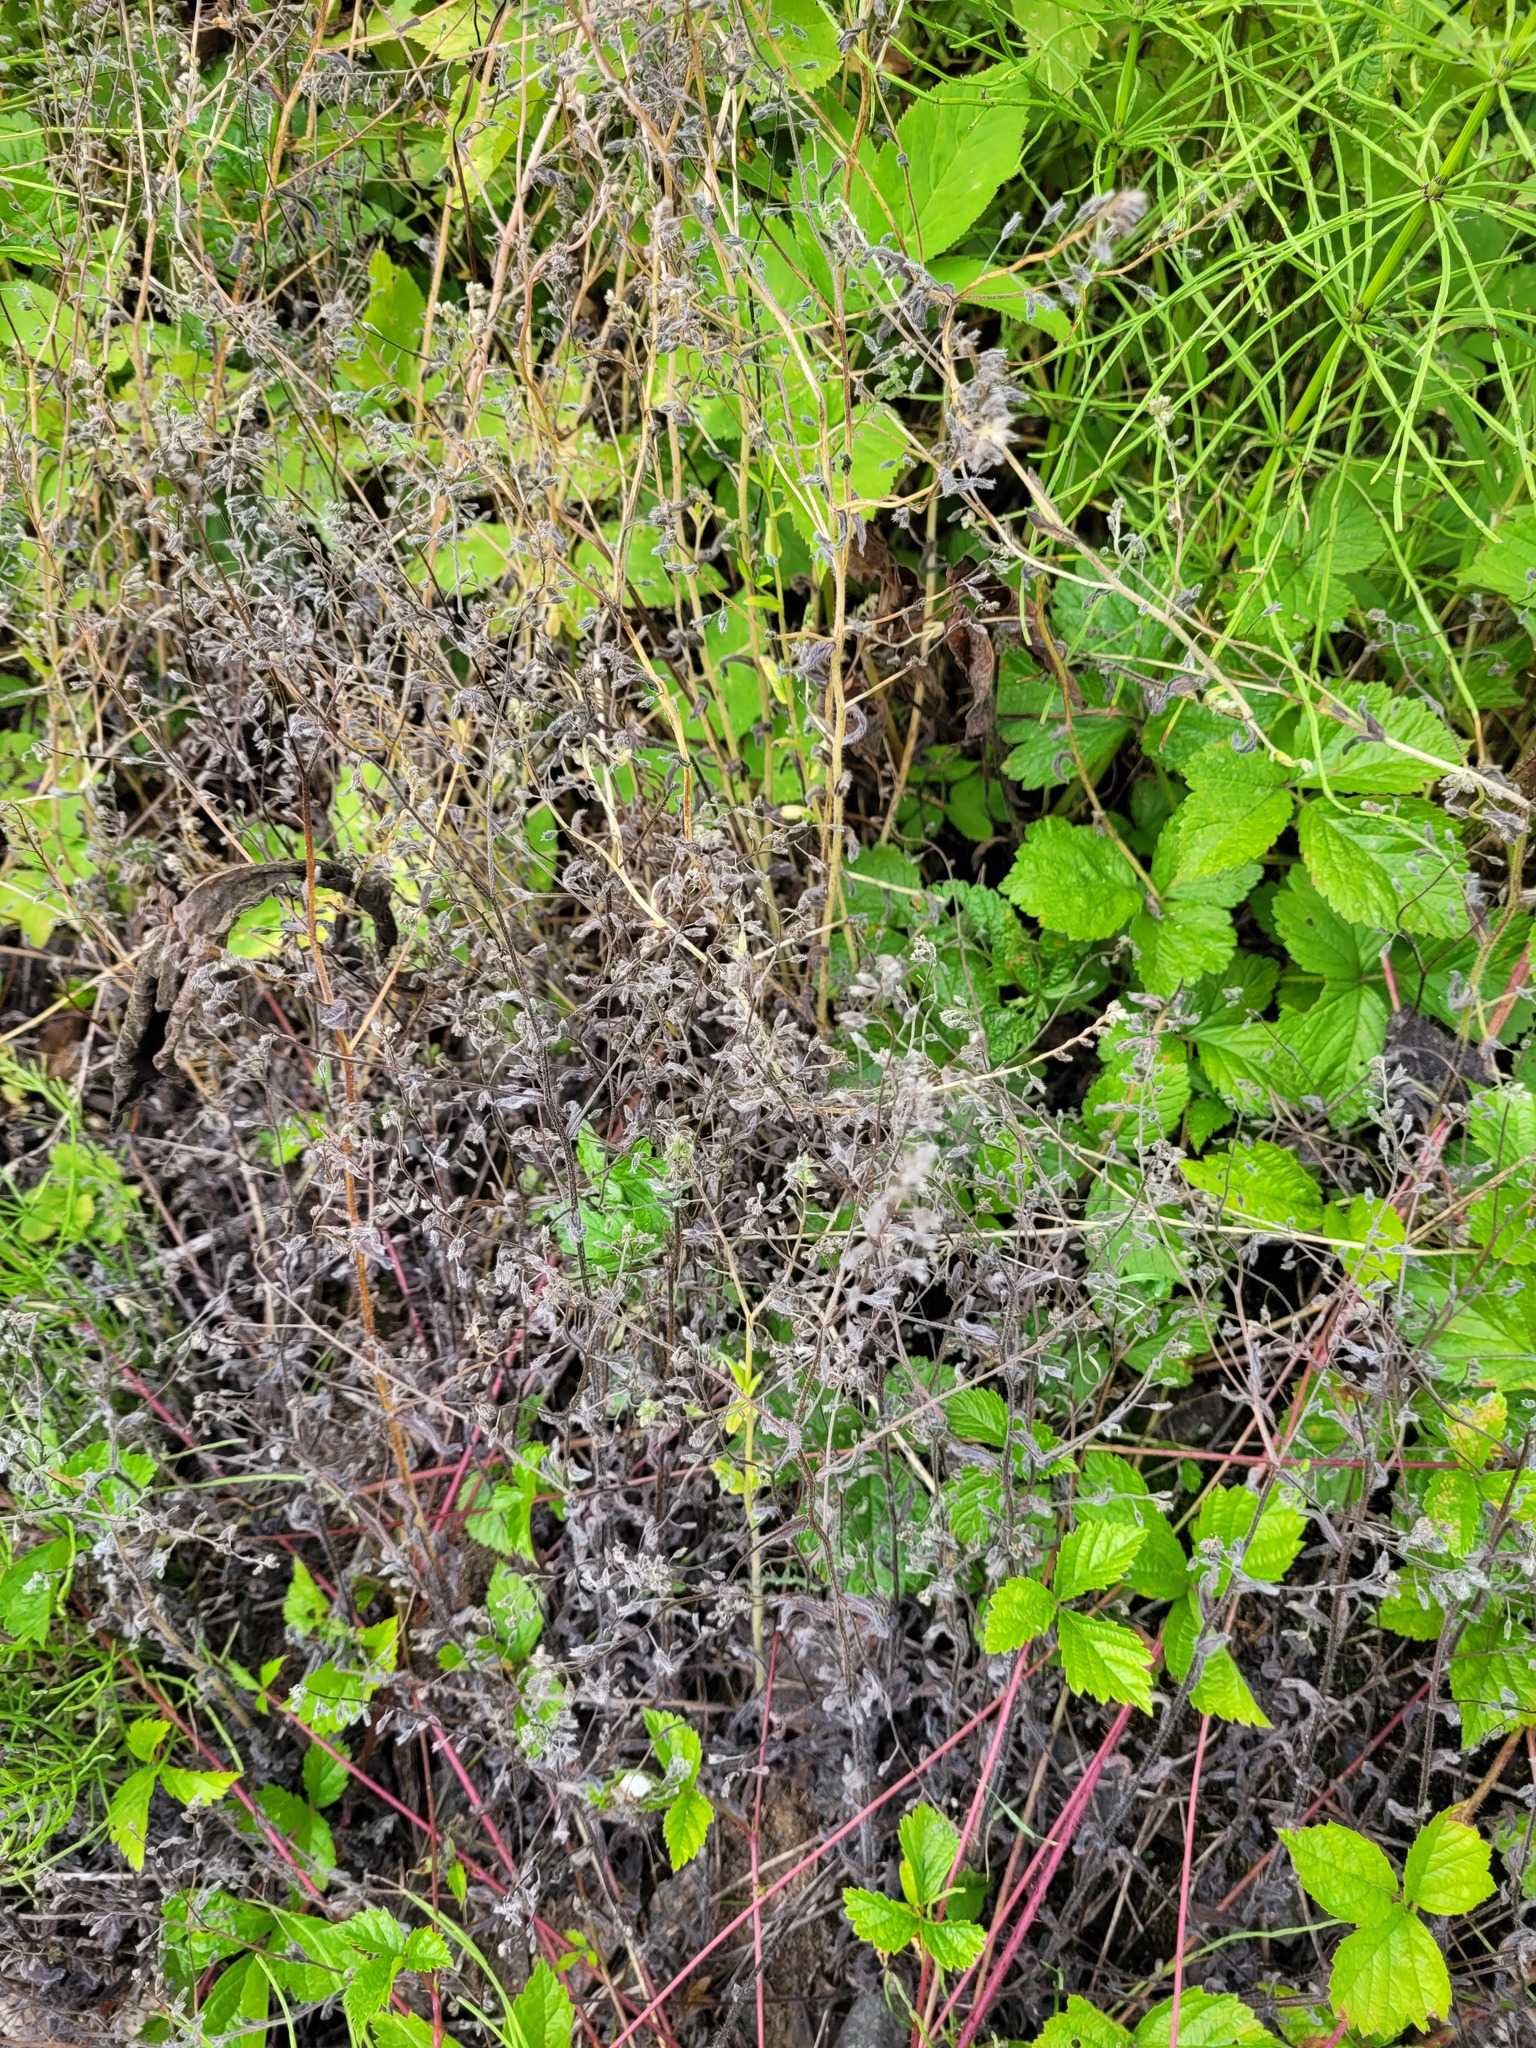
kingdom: Plantae
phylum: Tracheophyta
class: Magnoliopsida
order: Boraginales
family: Boraginaceae
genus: Myosotis
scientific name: Myosotis arvensis
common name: Field forget-me-not
